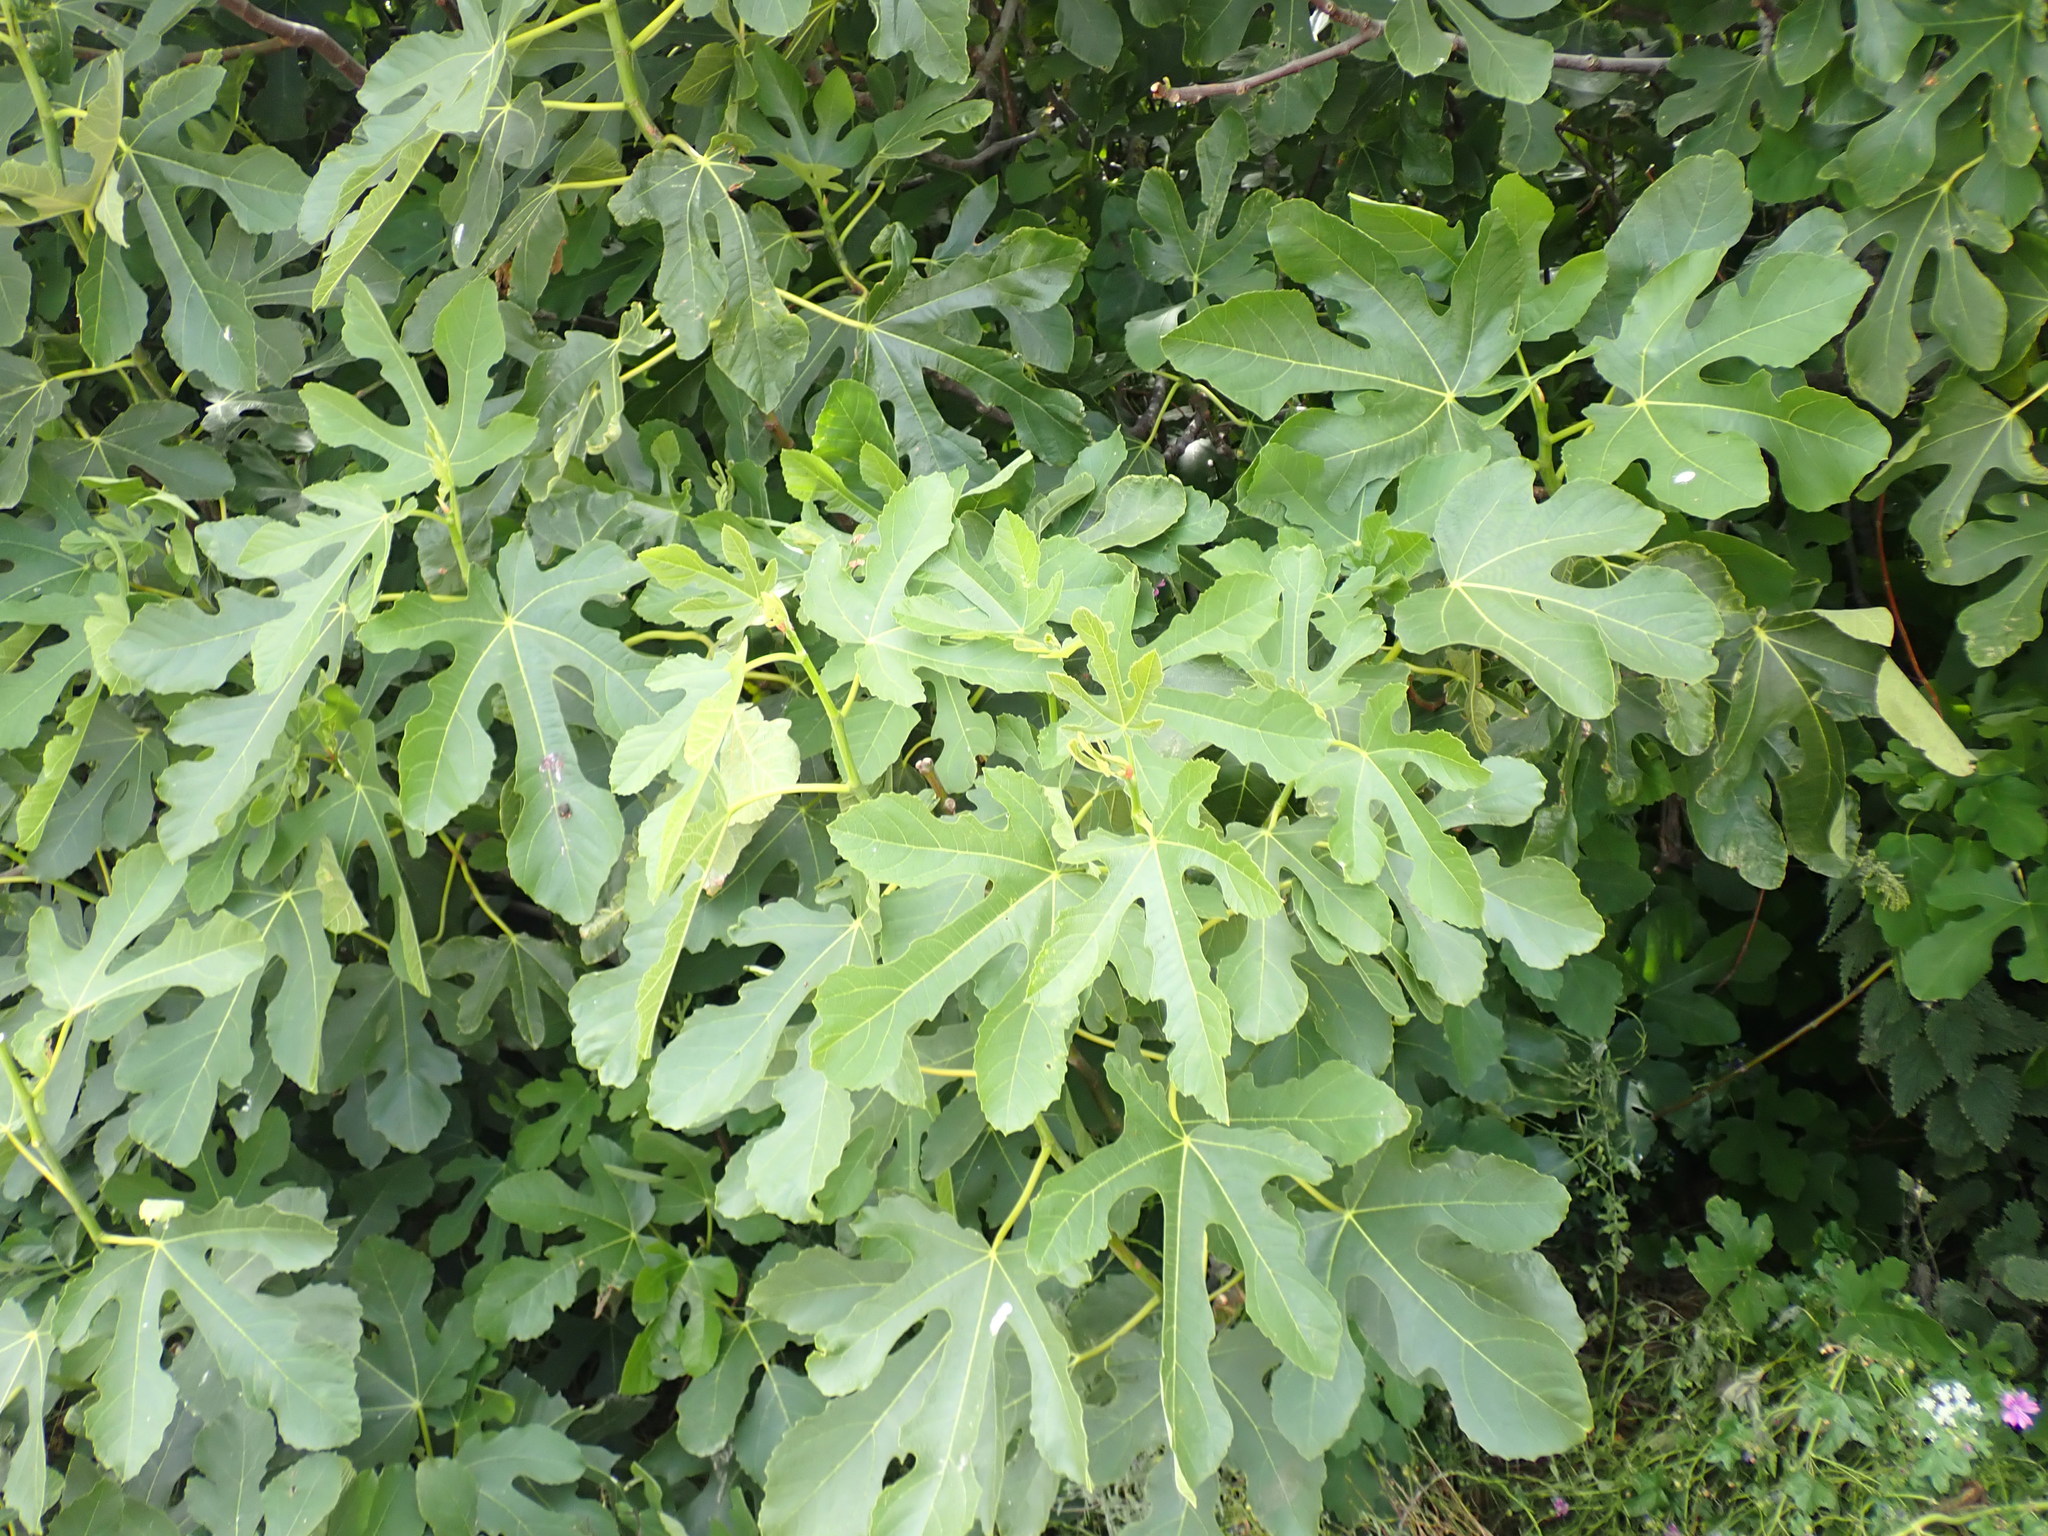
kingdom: Plantae
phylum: Tracheophyta
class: Magnoliopsida
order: Rosales
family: Moraceae
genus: Ficus
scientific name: Ficus carica
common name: Fig
